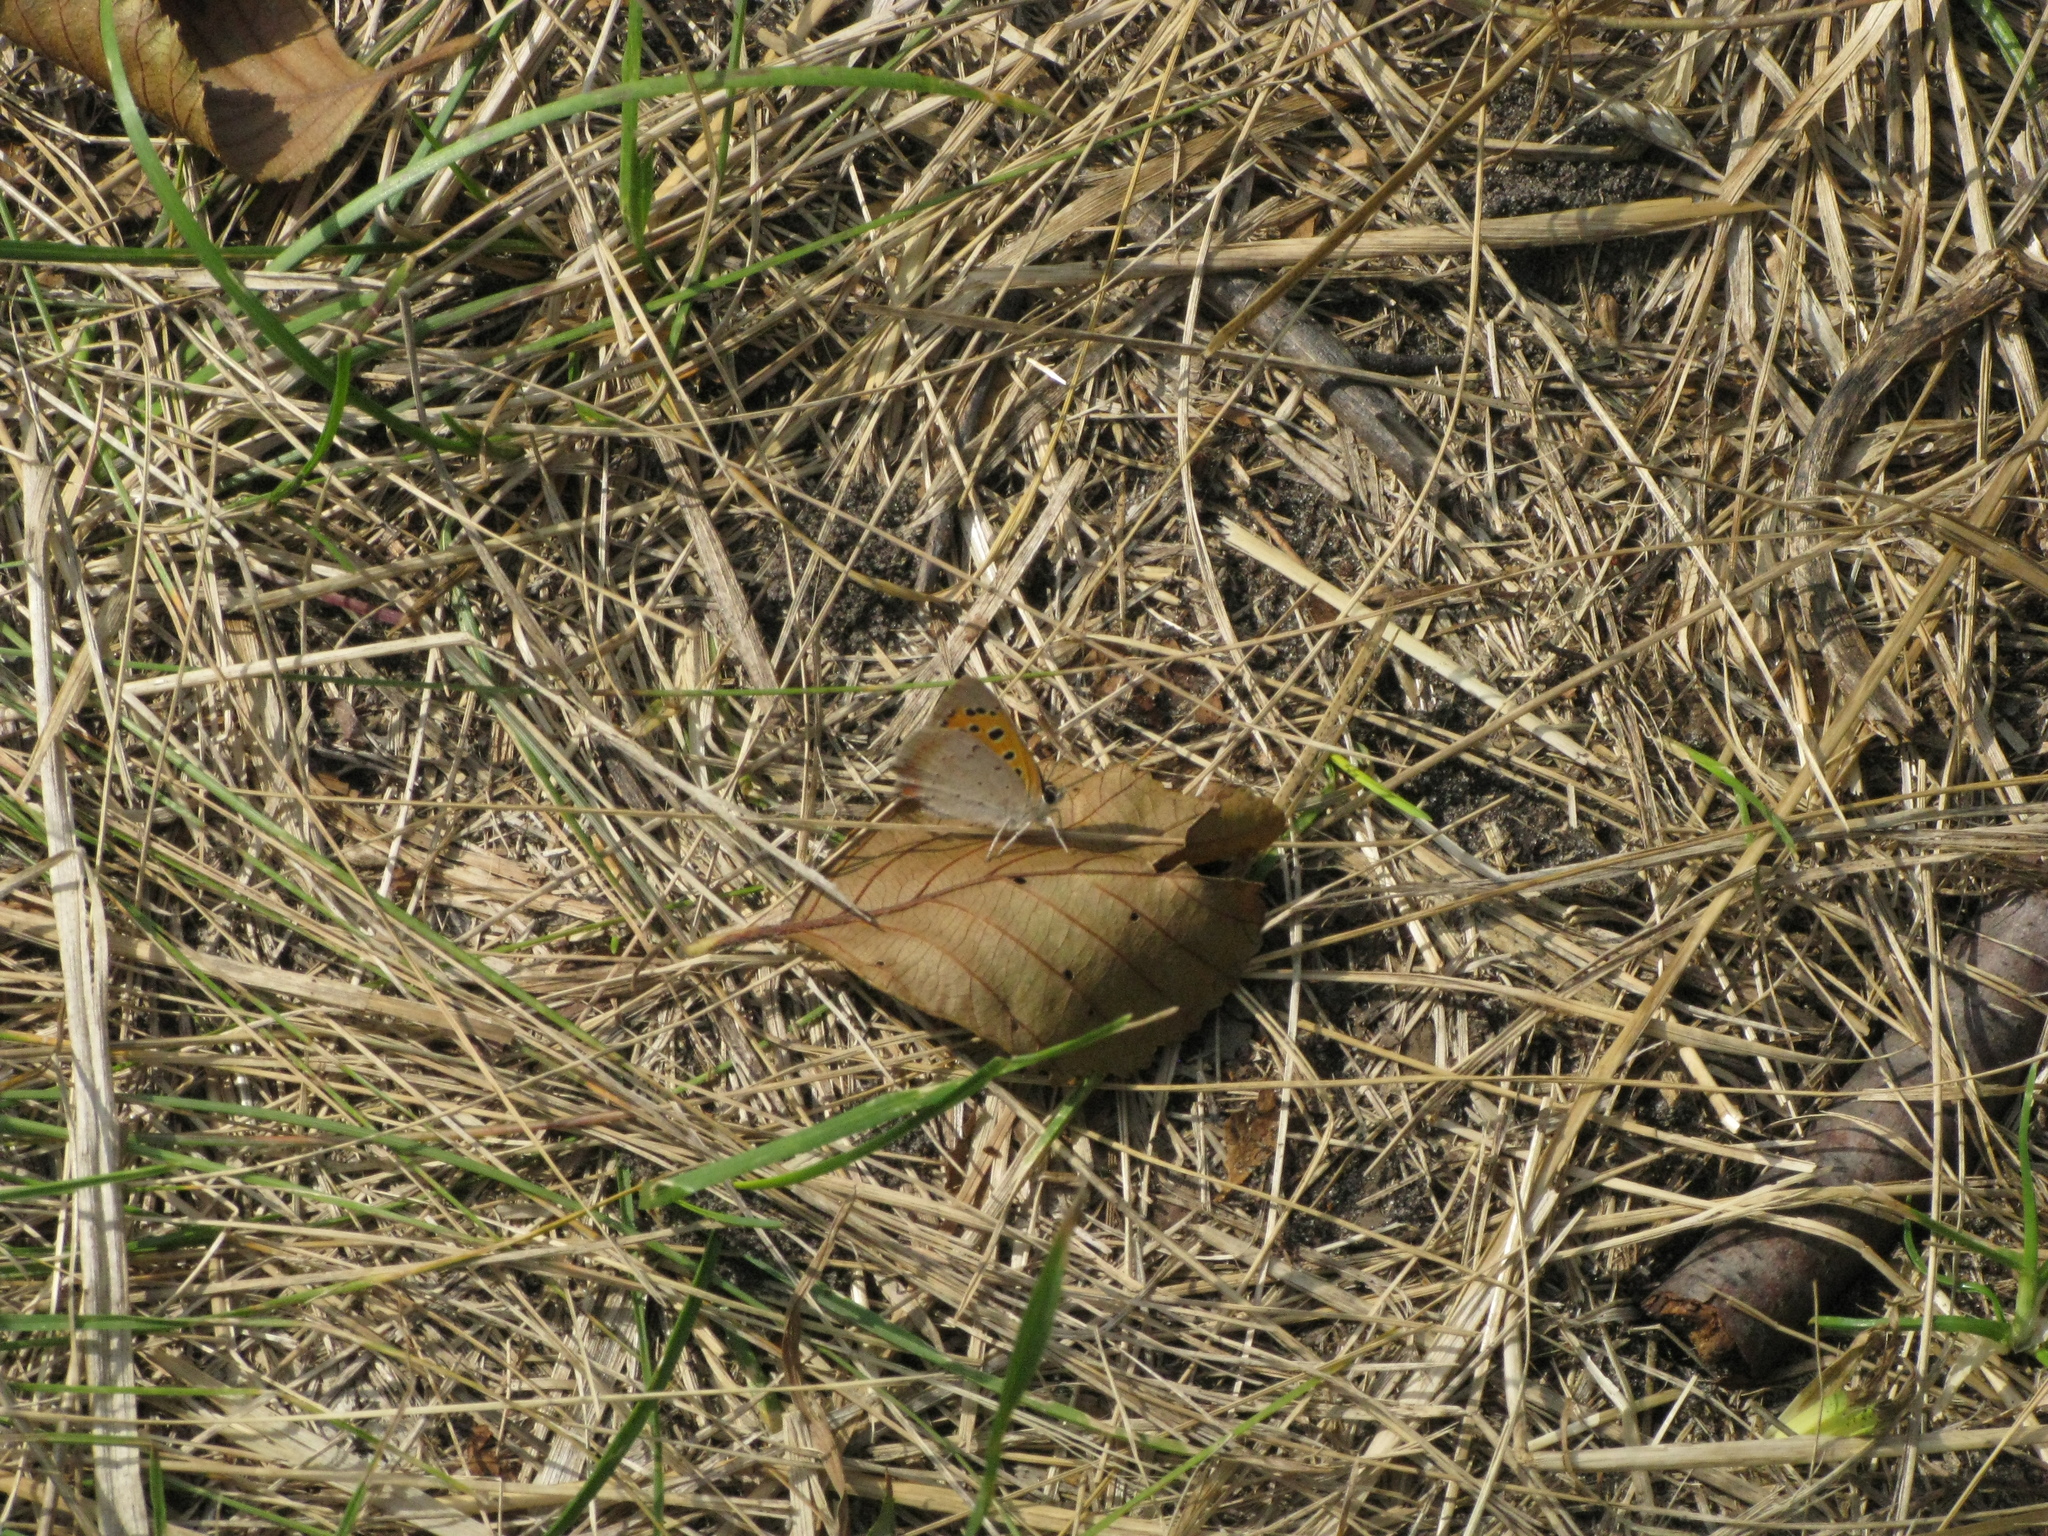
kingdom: Animalia
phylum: Arthropoda
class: Insecta
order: Lepidoptera
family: Lycaenidae
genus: Lycaena
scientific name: Lycaena phlaeas
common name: Small copper
